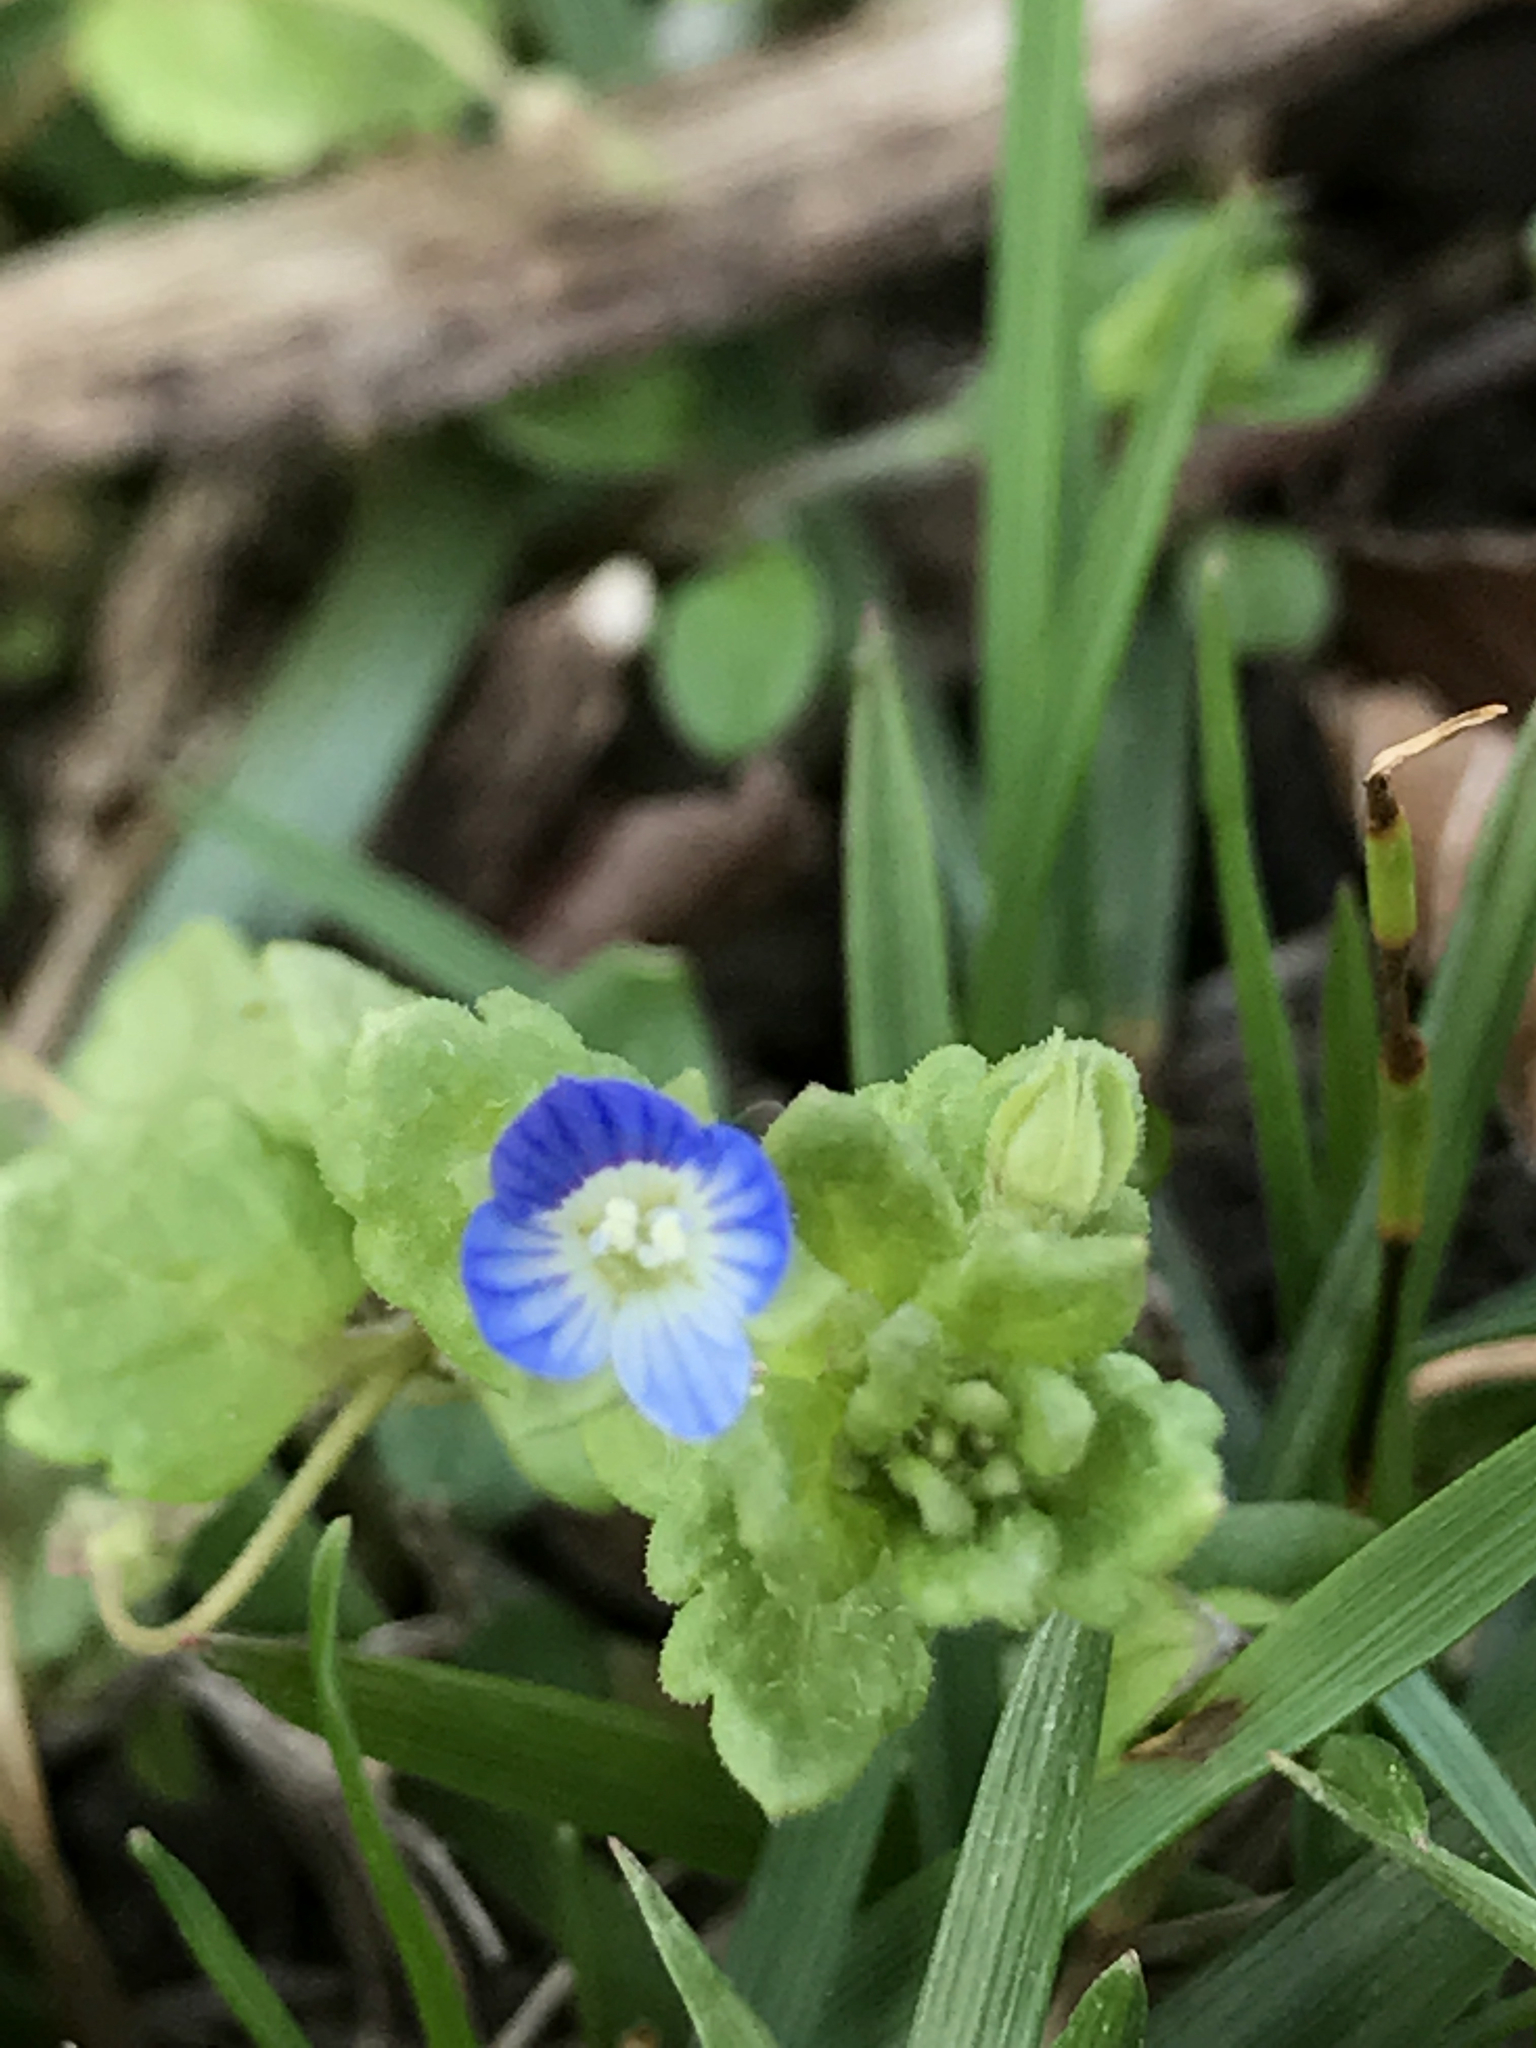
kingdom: Plantae
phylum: Tracheophyta
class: Magnoliopsida
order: Lamiales
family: Plantaginaceae
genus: Veronica
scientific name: Veronica polita
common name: Grey field-speedwell
